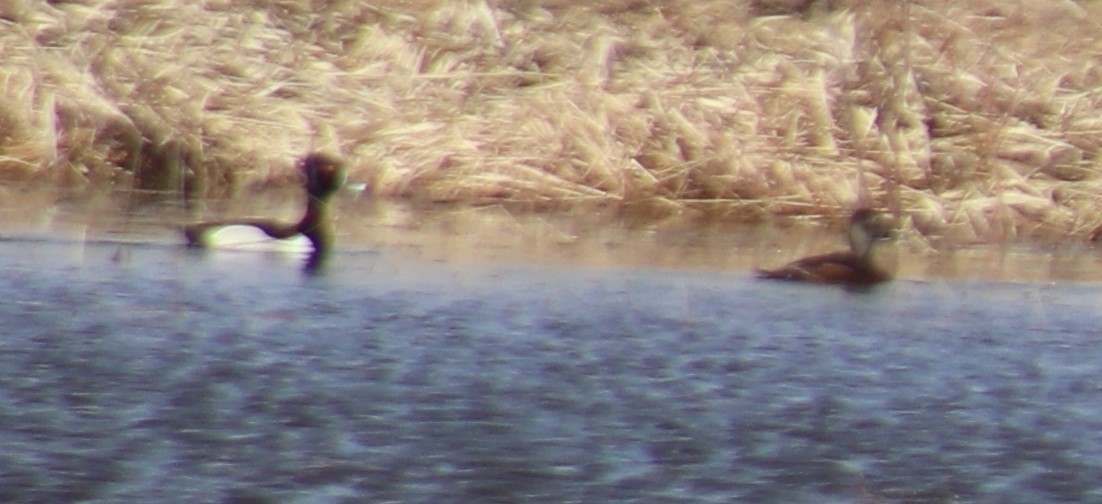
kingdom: Animalia
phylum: Chordata
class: Aves
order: Anseriformes
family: Anatidae
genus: Aythya
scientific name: Aythya collaris
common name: Ring-necked duck
